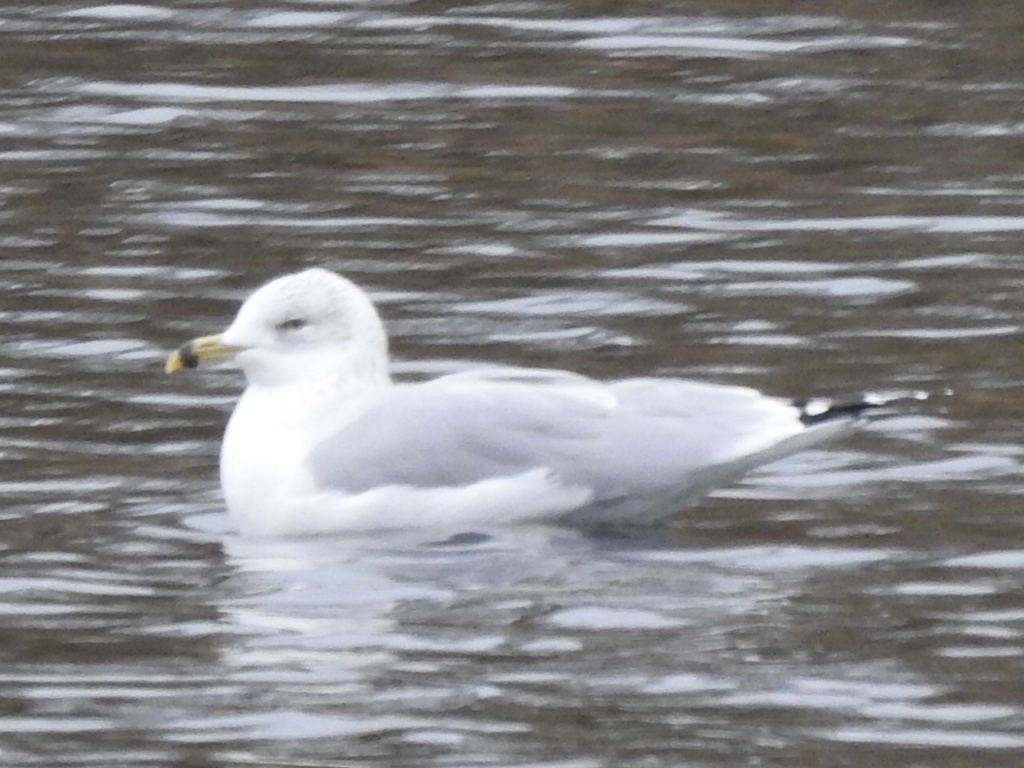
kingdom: Animalia
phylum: Chordata
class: Aves
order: Charadriiformes
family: Laridae
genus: Larus
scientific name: Larus delawarensis
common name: Ring-billed gull
